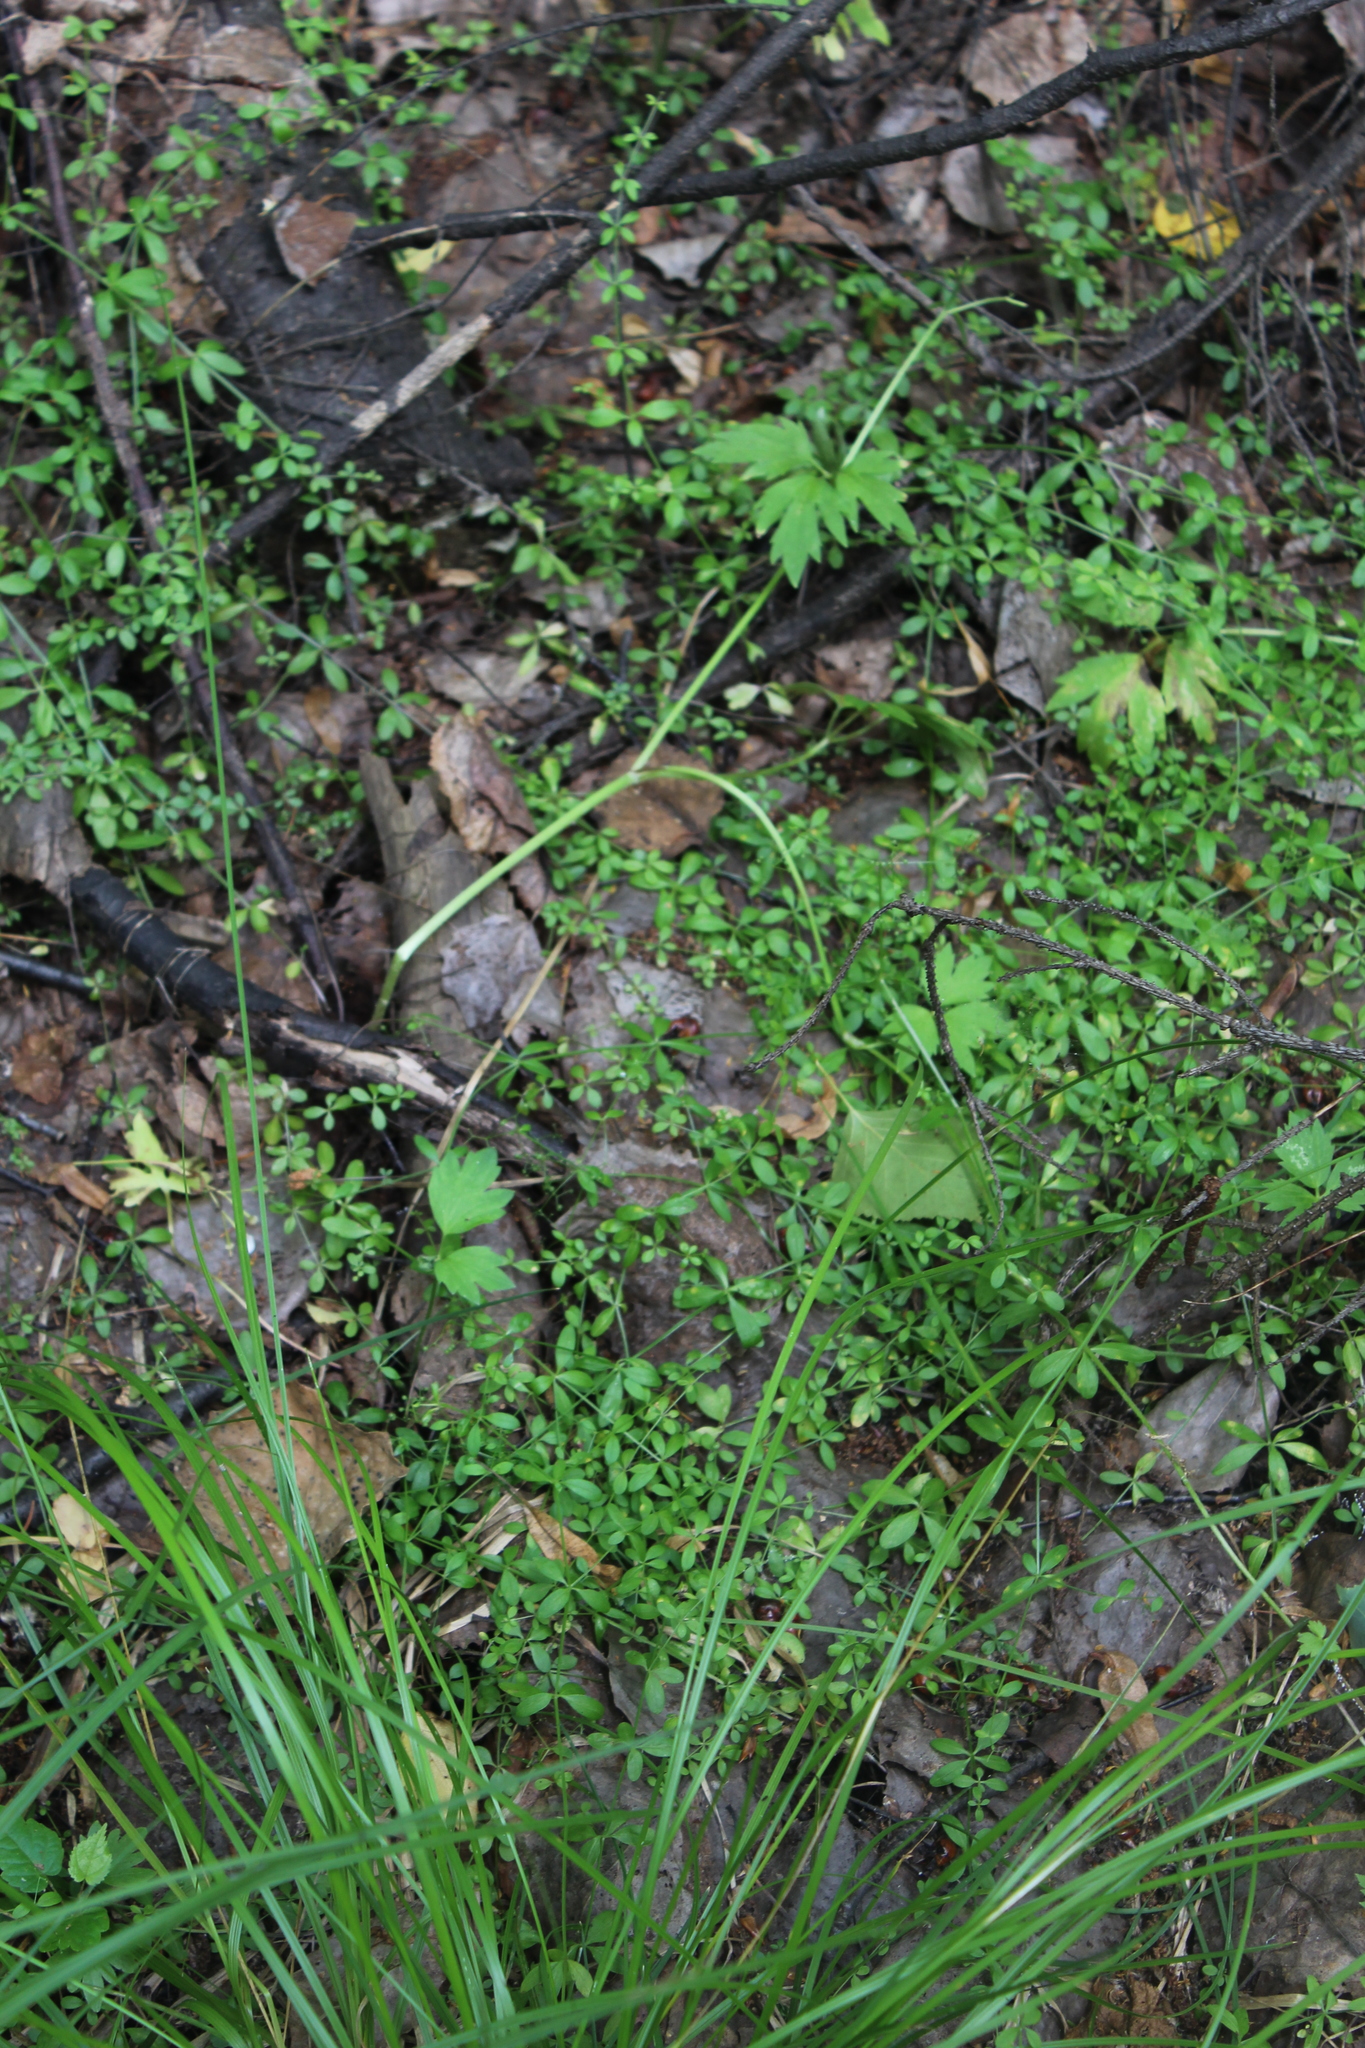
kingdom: Plantae
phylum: Tracheophyta
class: Magnoliopsida
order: Gentianales
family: Rubiaceae
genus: Galium
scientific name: Galium palustre
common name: Common marsh-bedstraw
